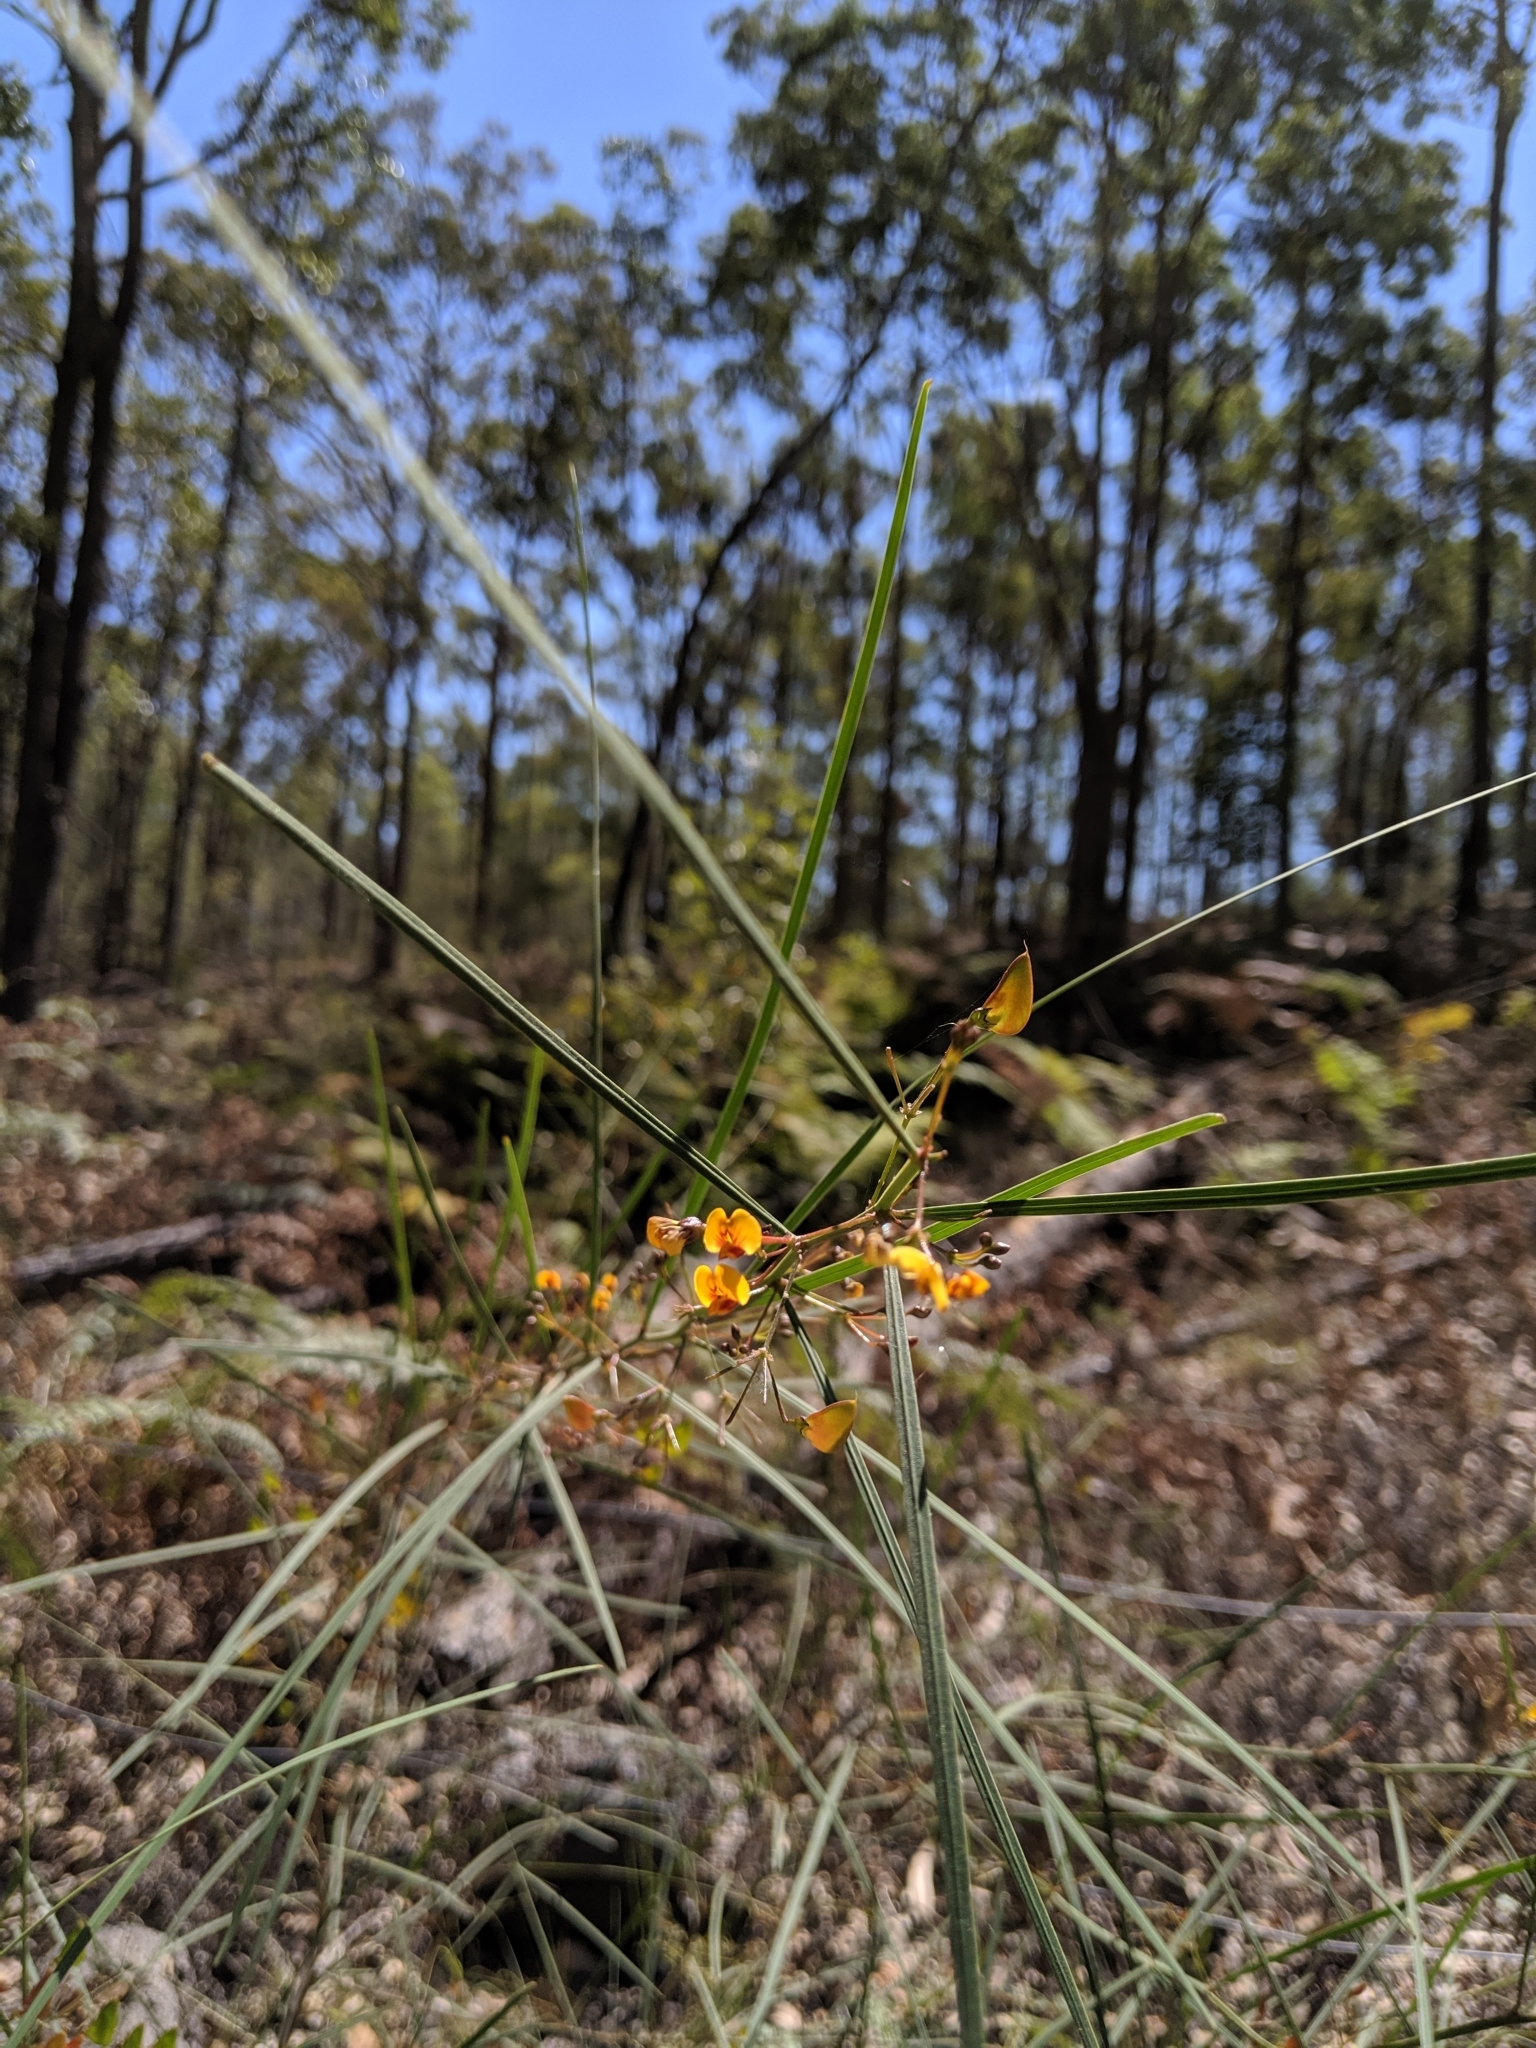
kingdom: Plantae
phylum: Tracheophyta
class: Magnoliopsida
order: Fabales
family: Fabaceae
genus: Daviesia
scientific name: Daviesia wyattiana
